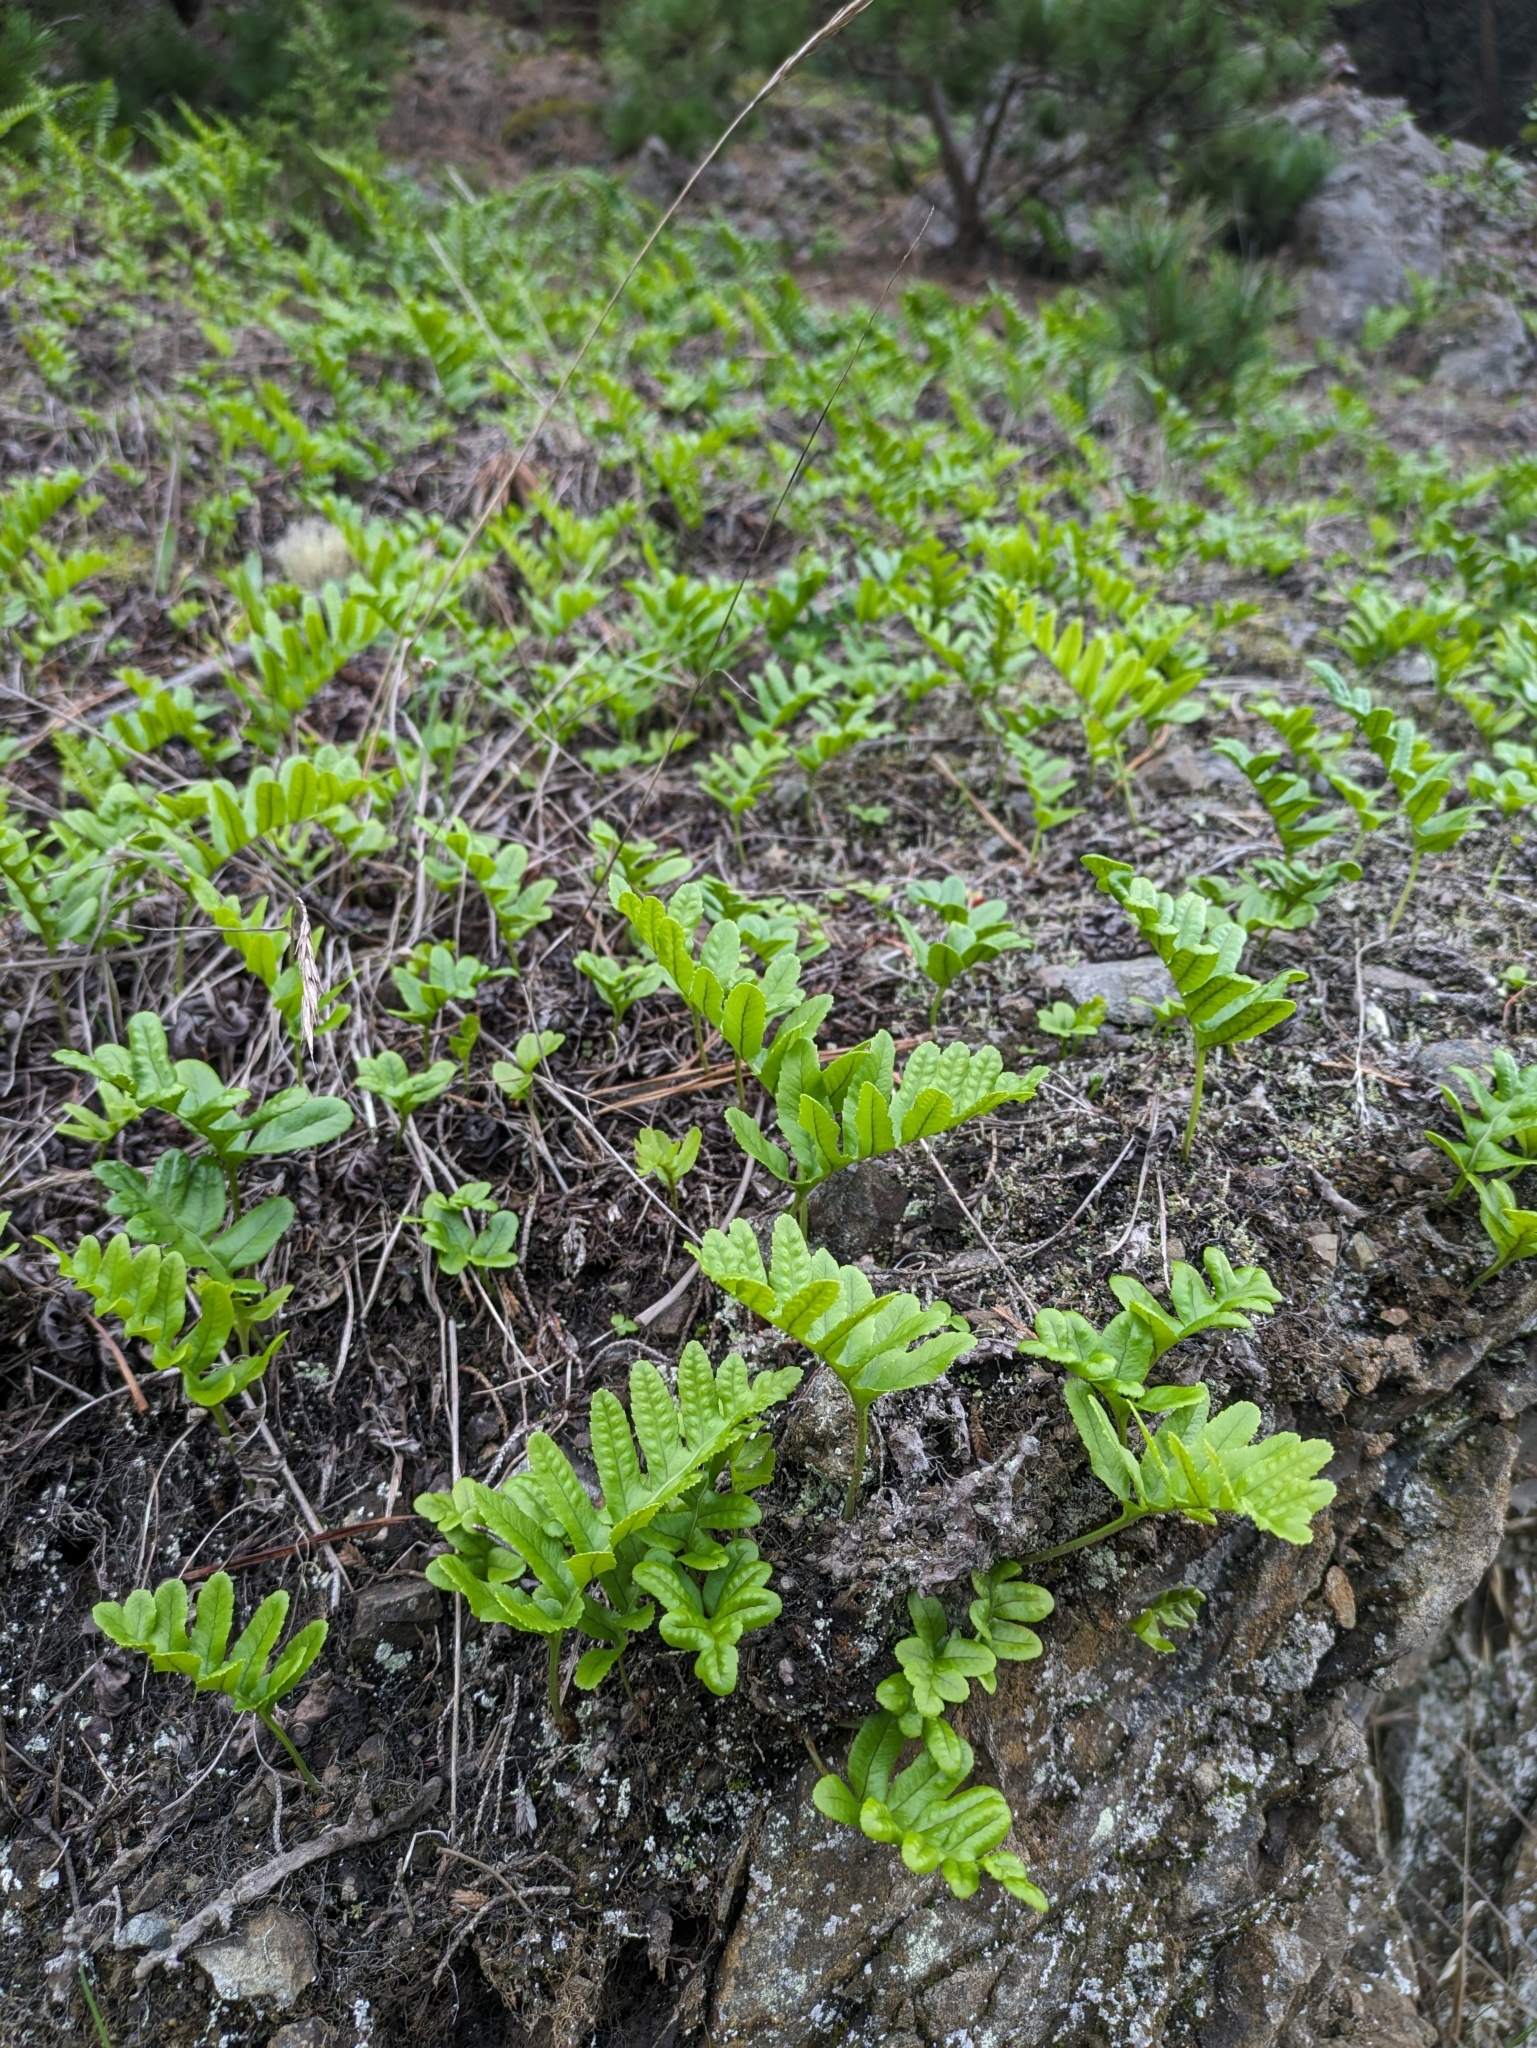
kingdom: Plantae
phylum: Tracheophyta
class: Polypodiopsida
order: Polypodiales
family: Polypodiaceae
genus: Polypodium
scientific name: Polypodium californicum
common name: California polypody
